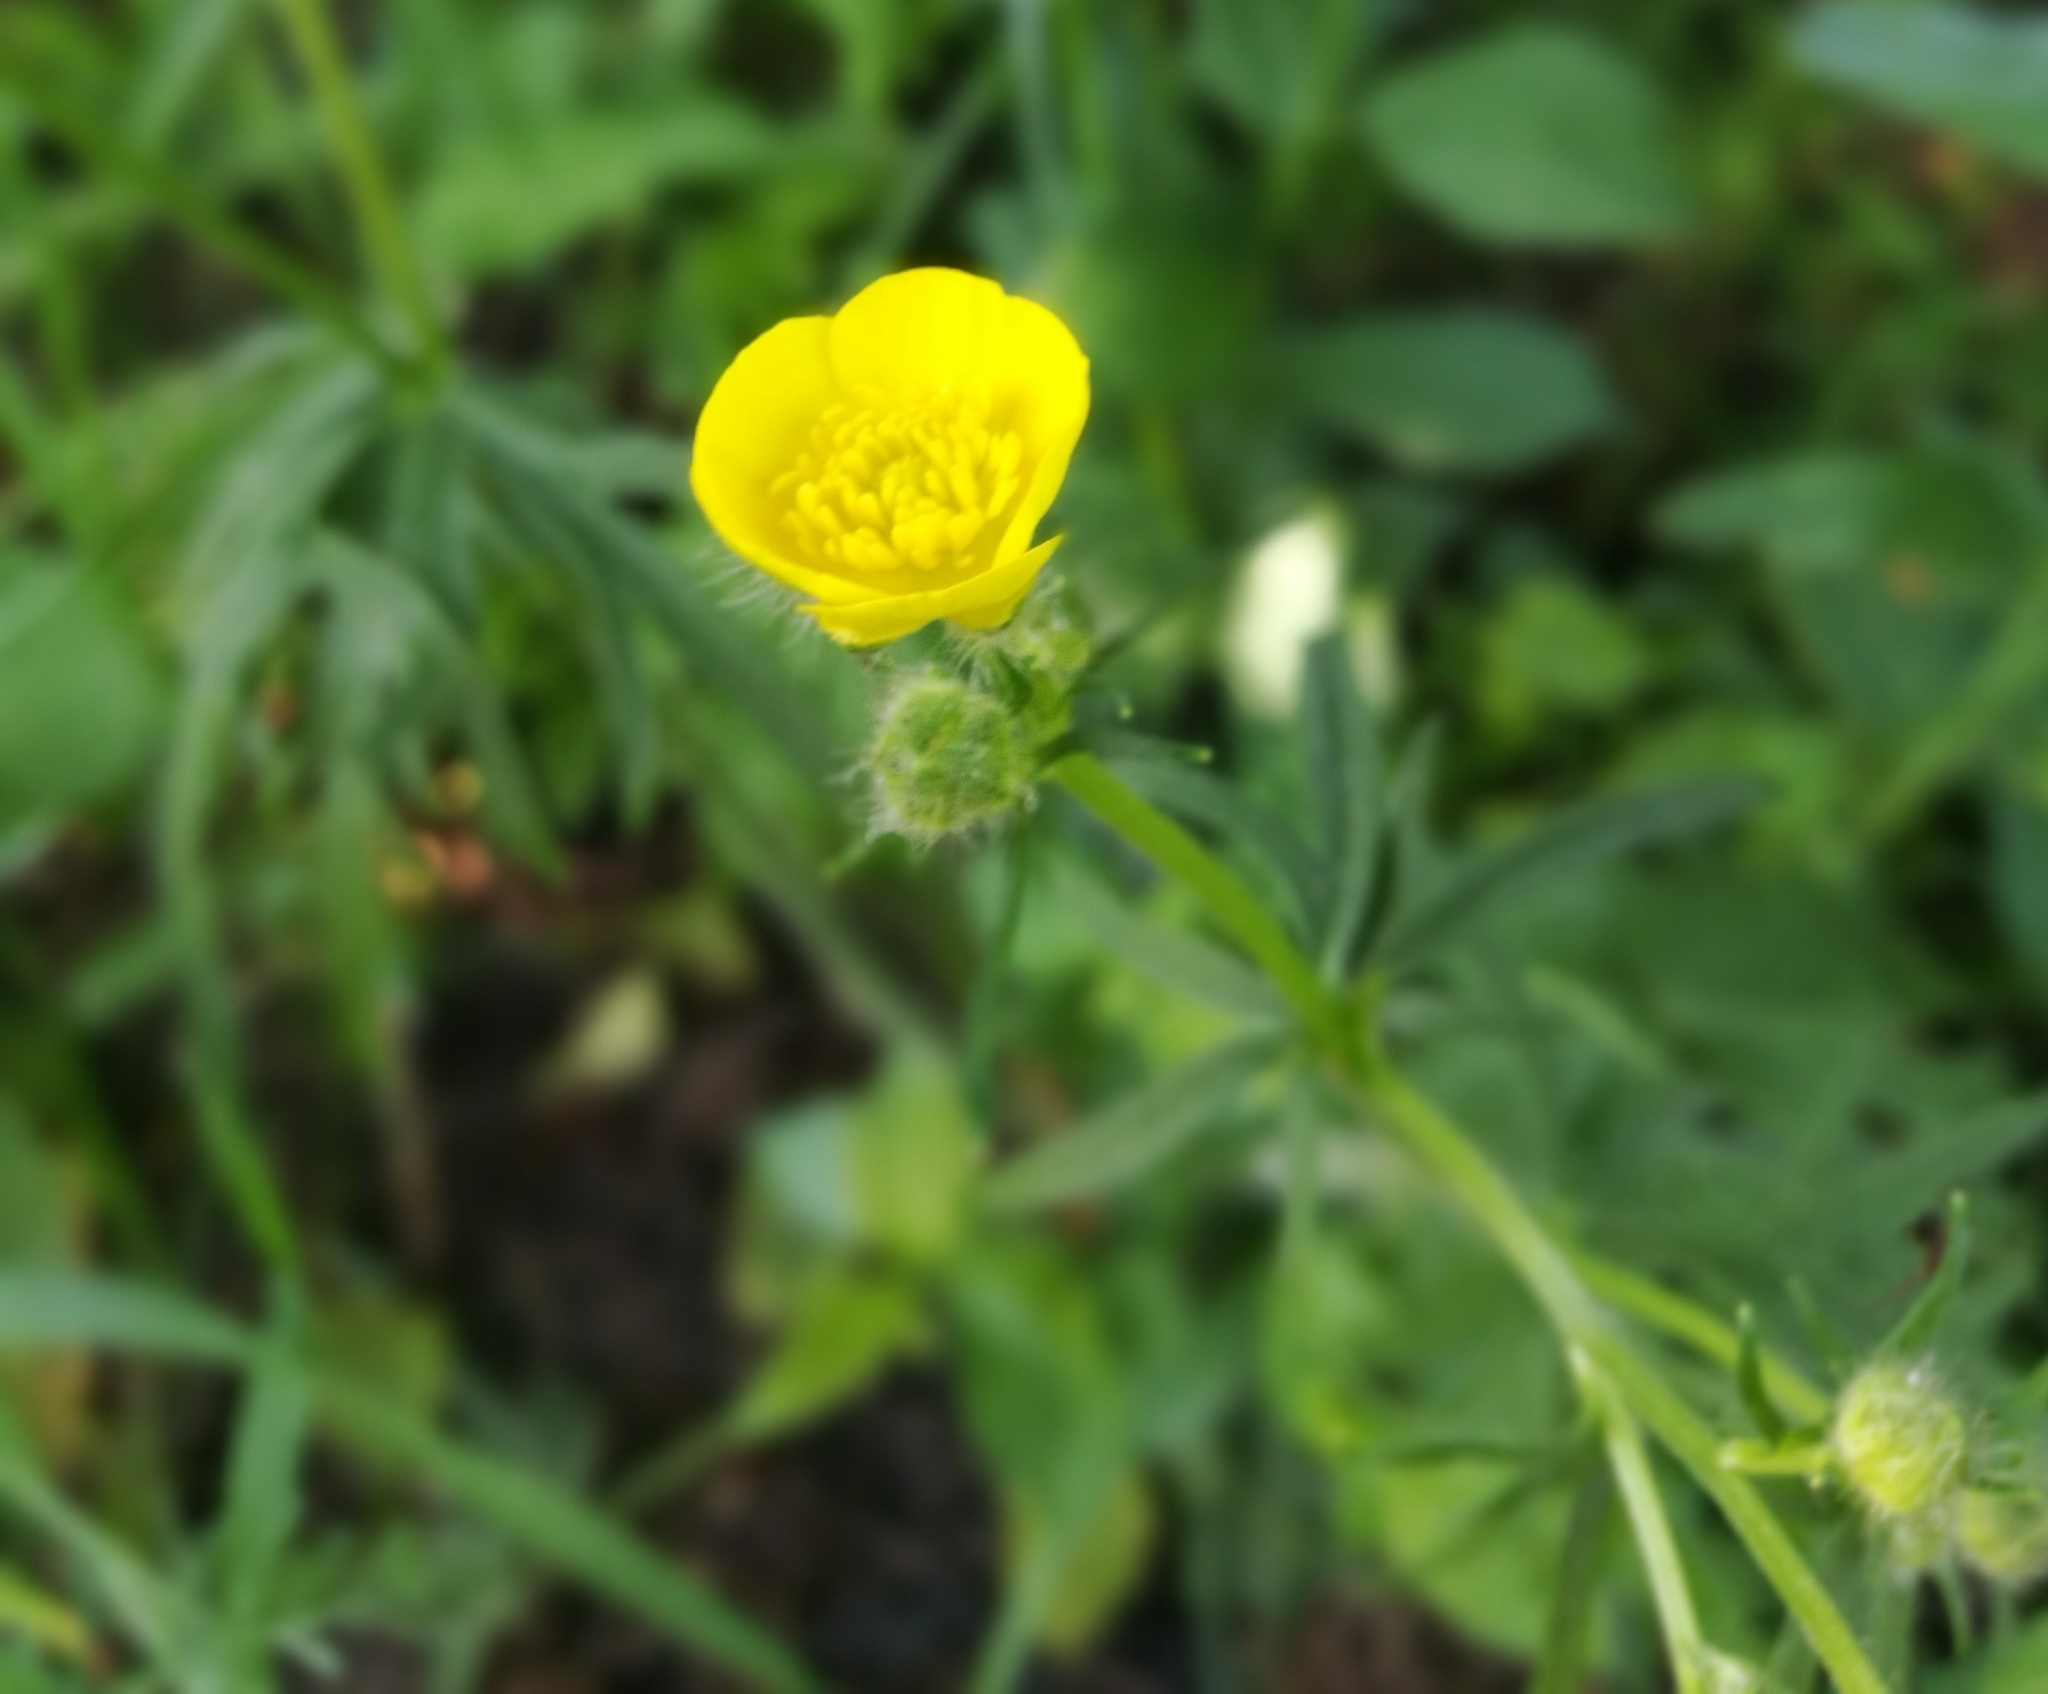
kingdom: Plantae
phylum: Tracheophyta
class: Magnoliopsida
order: Ranunculales
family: Ranunculaceae
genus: Ranunculus
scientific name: Ranunculus polyanthemos
